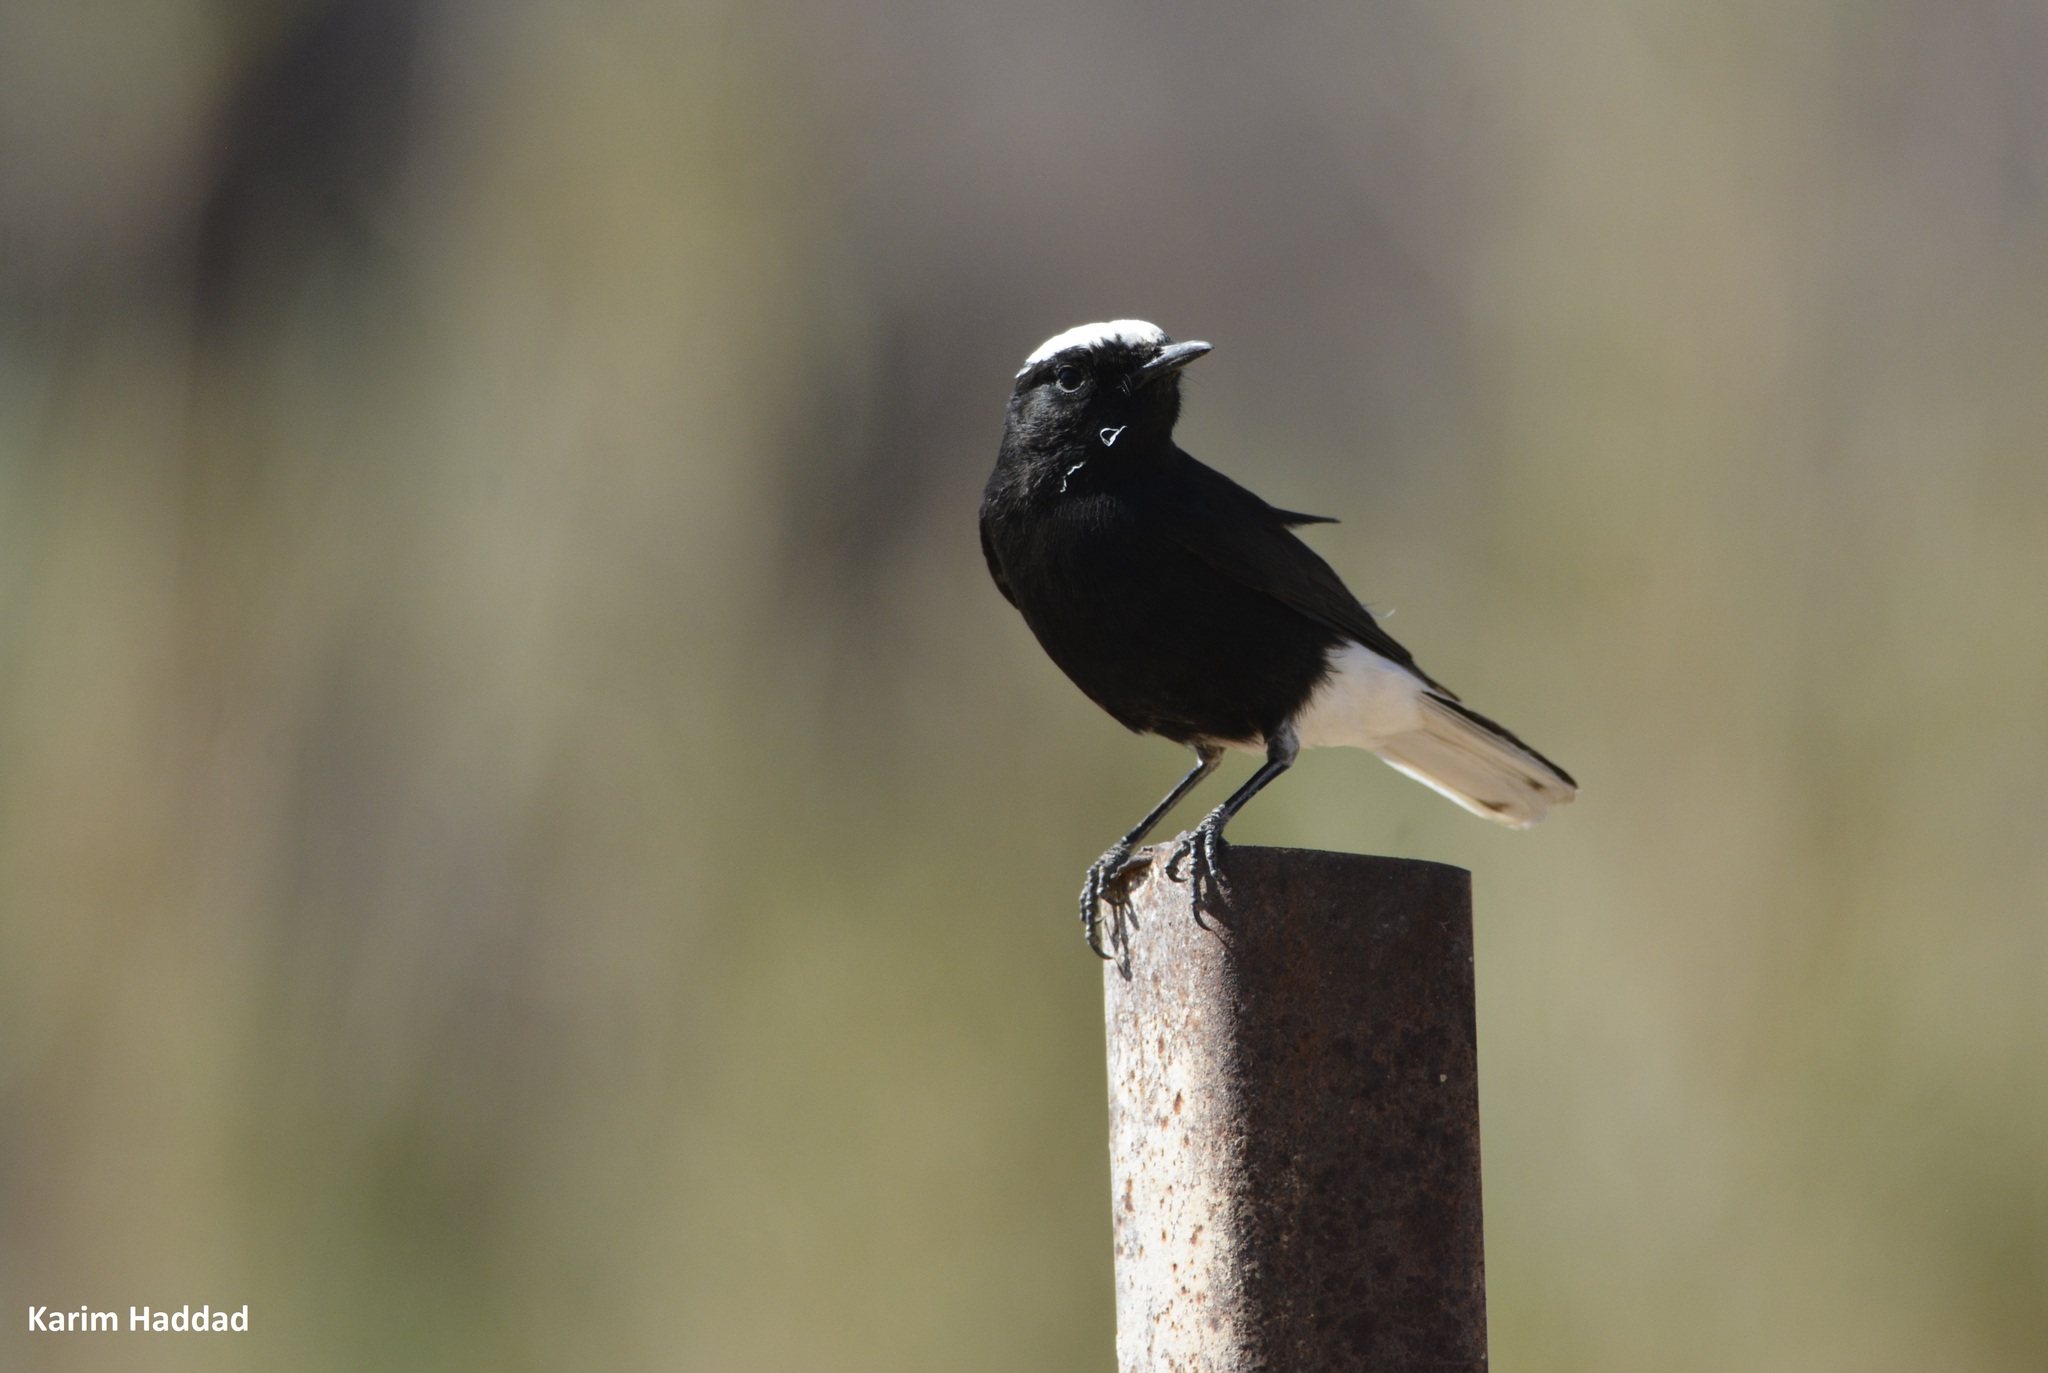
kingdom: Animalia
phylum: Chordata
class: Aves
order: Passeriformes
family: Muscicapidae
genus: Oenanthe
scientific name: Oenanthe leucopyga
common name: White-crowned wheatear
